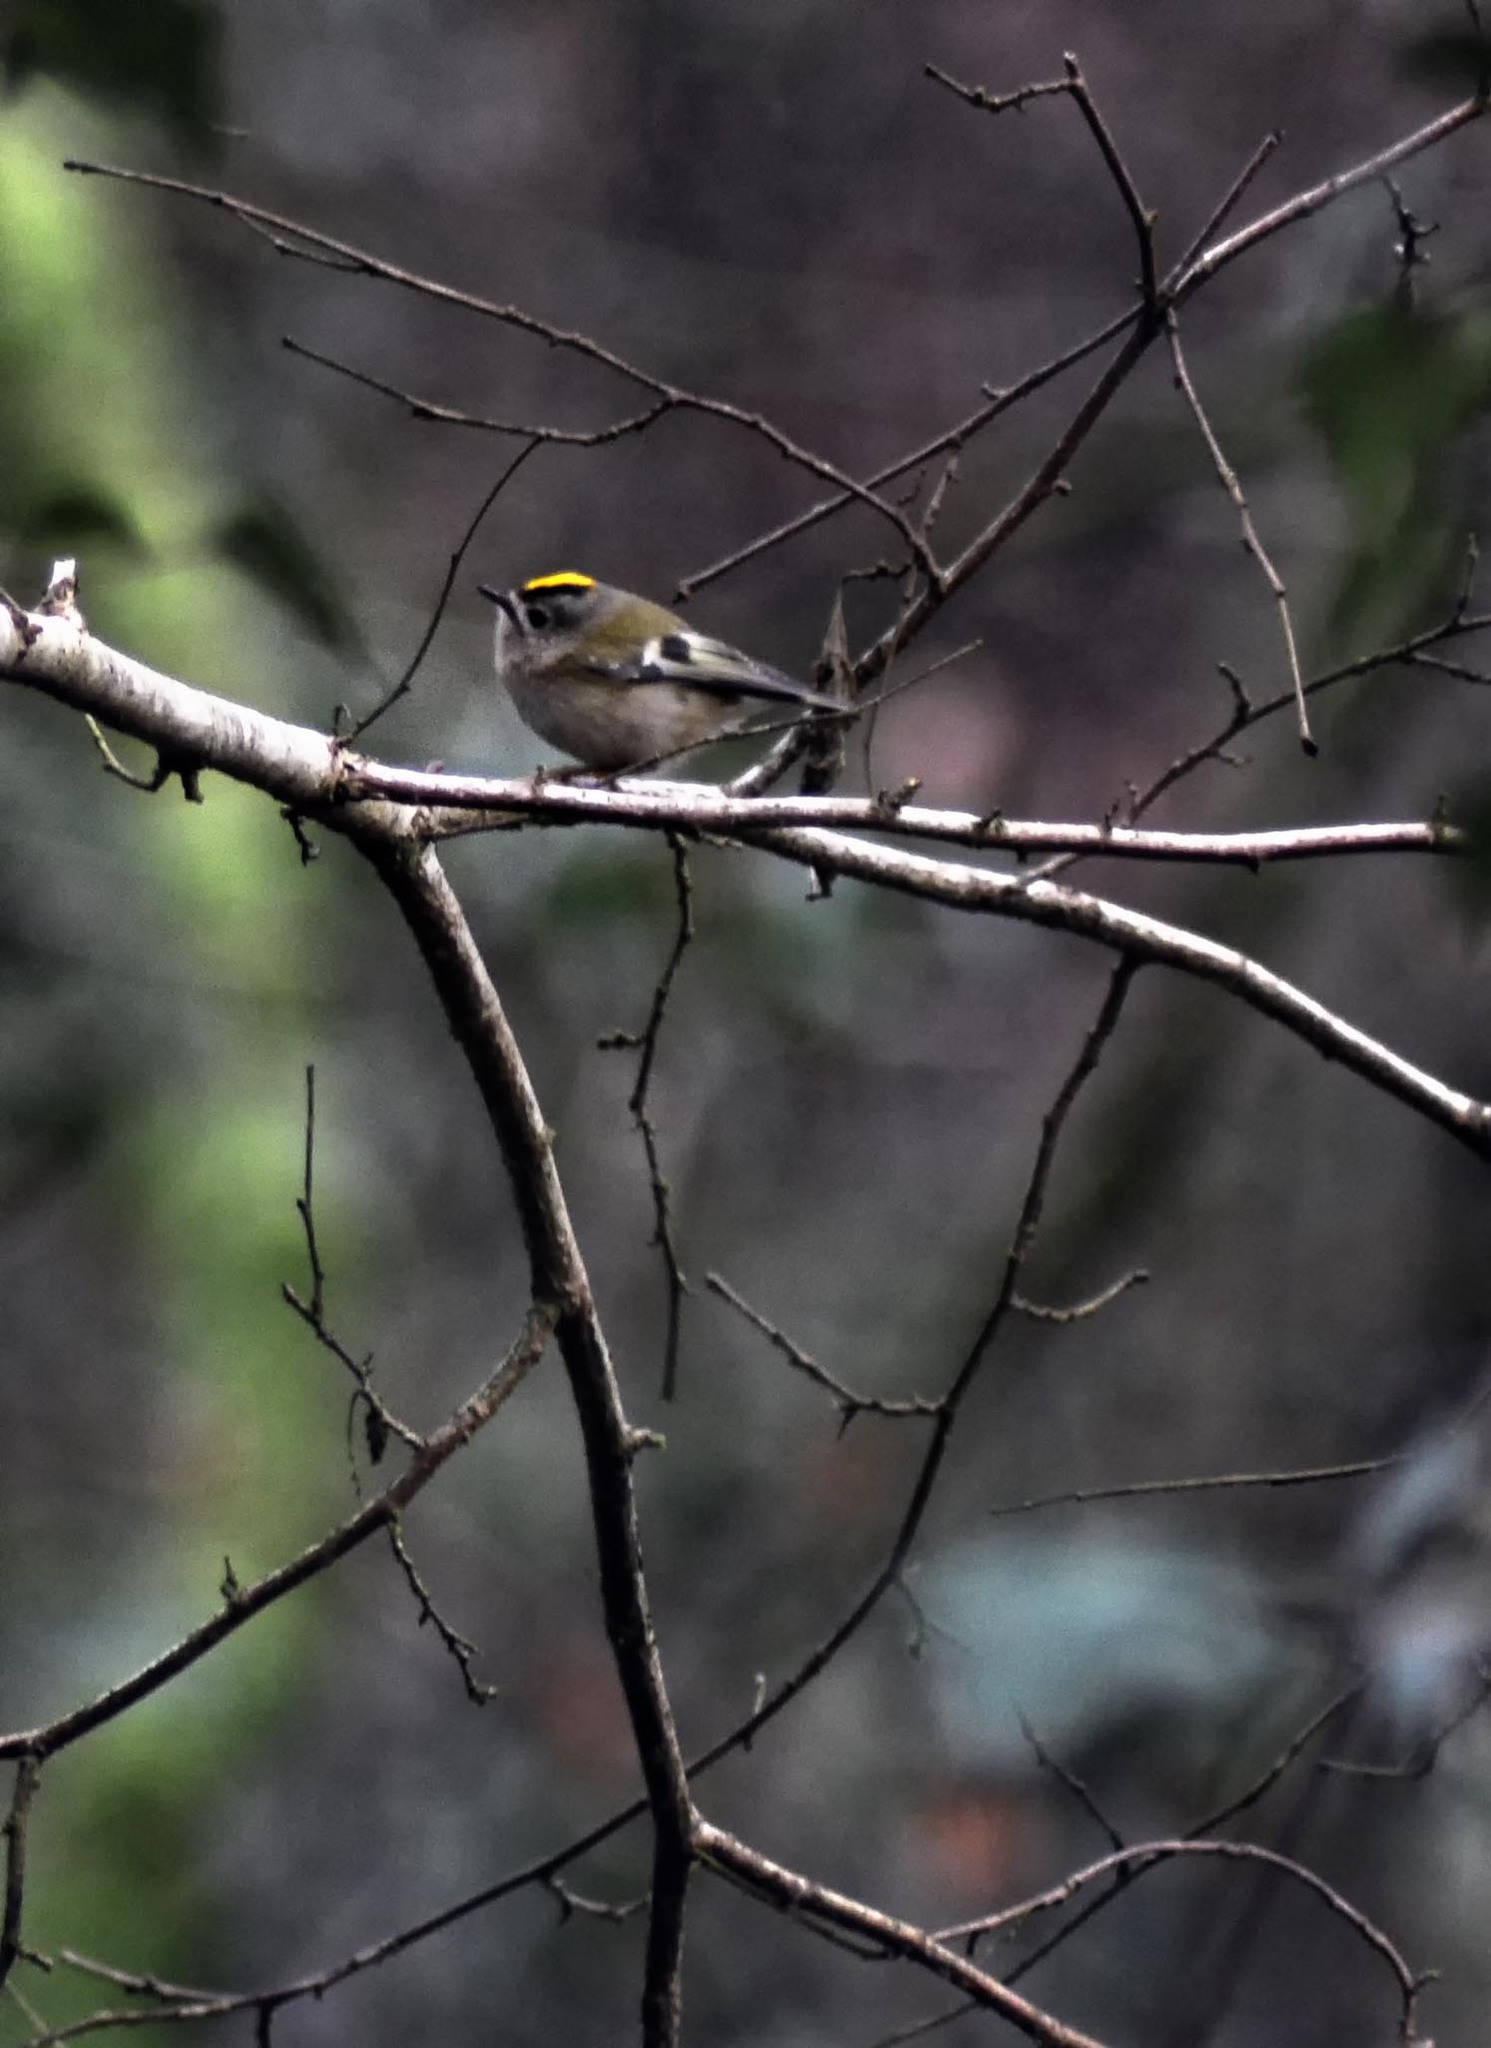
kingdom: Animalia
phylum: Chordata
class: Aves
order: Passeriformes
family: Regulidae
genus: Regulus
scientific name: Regulus regulus
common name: Goldcrest
